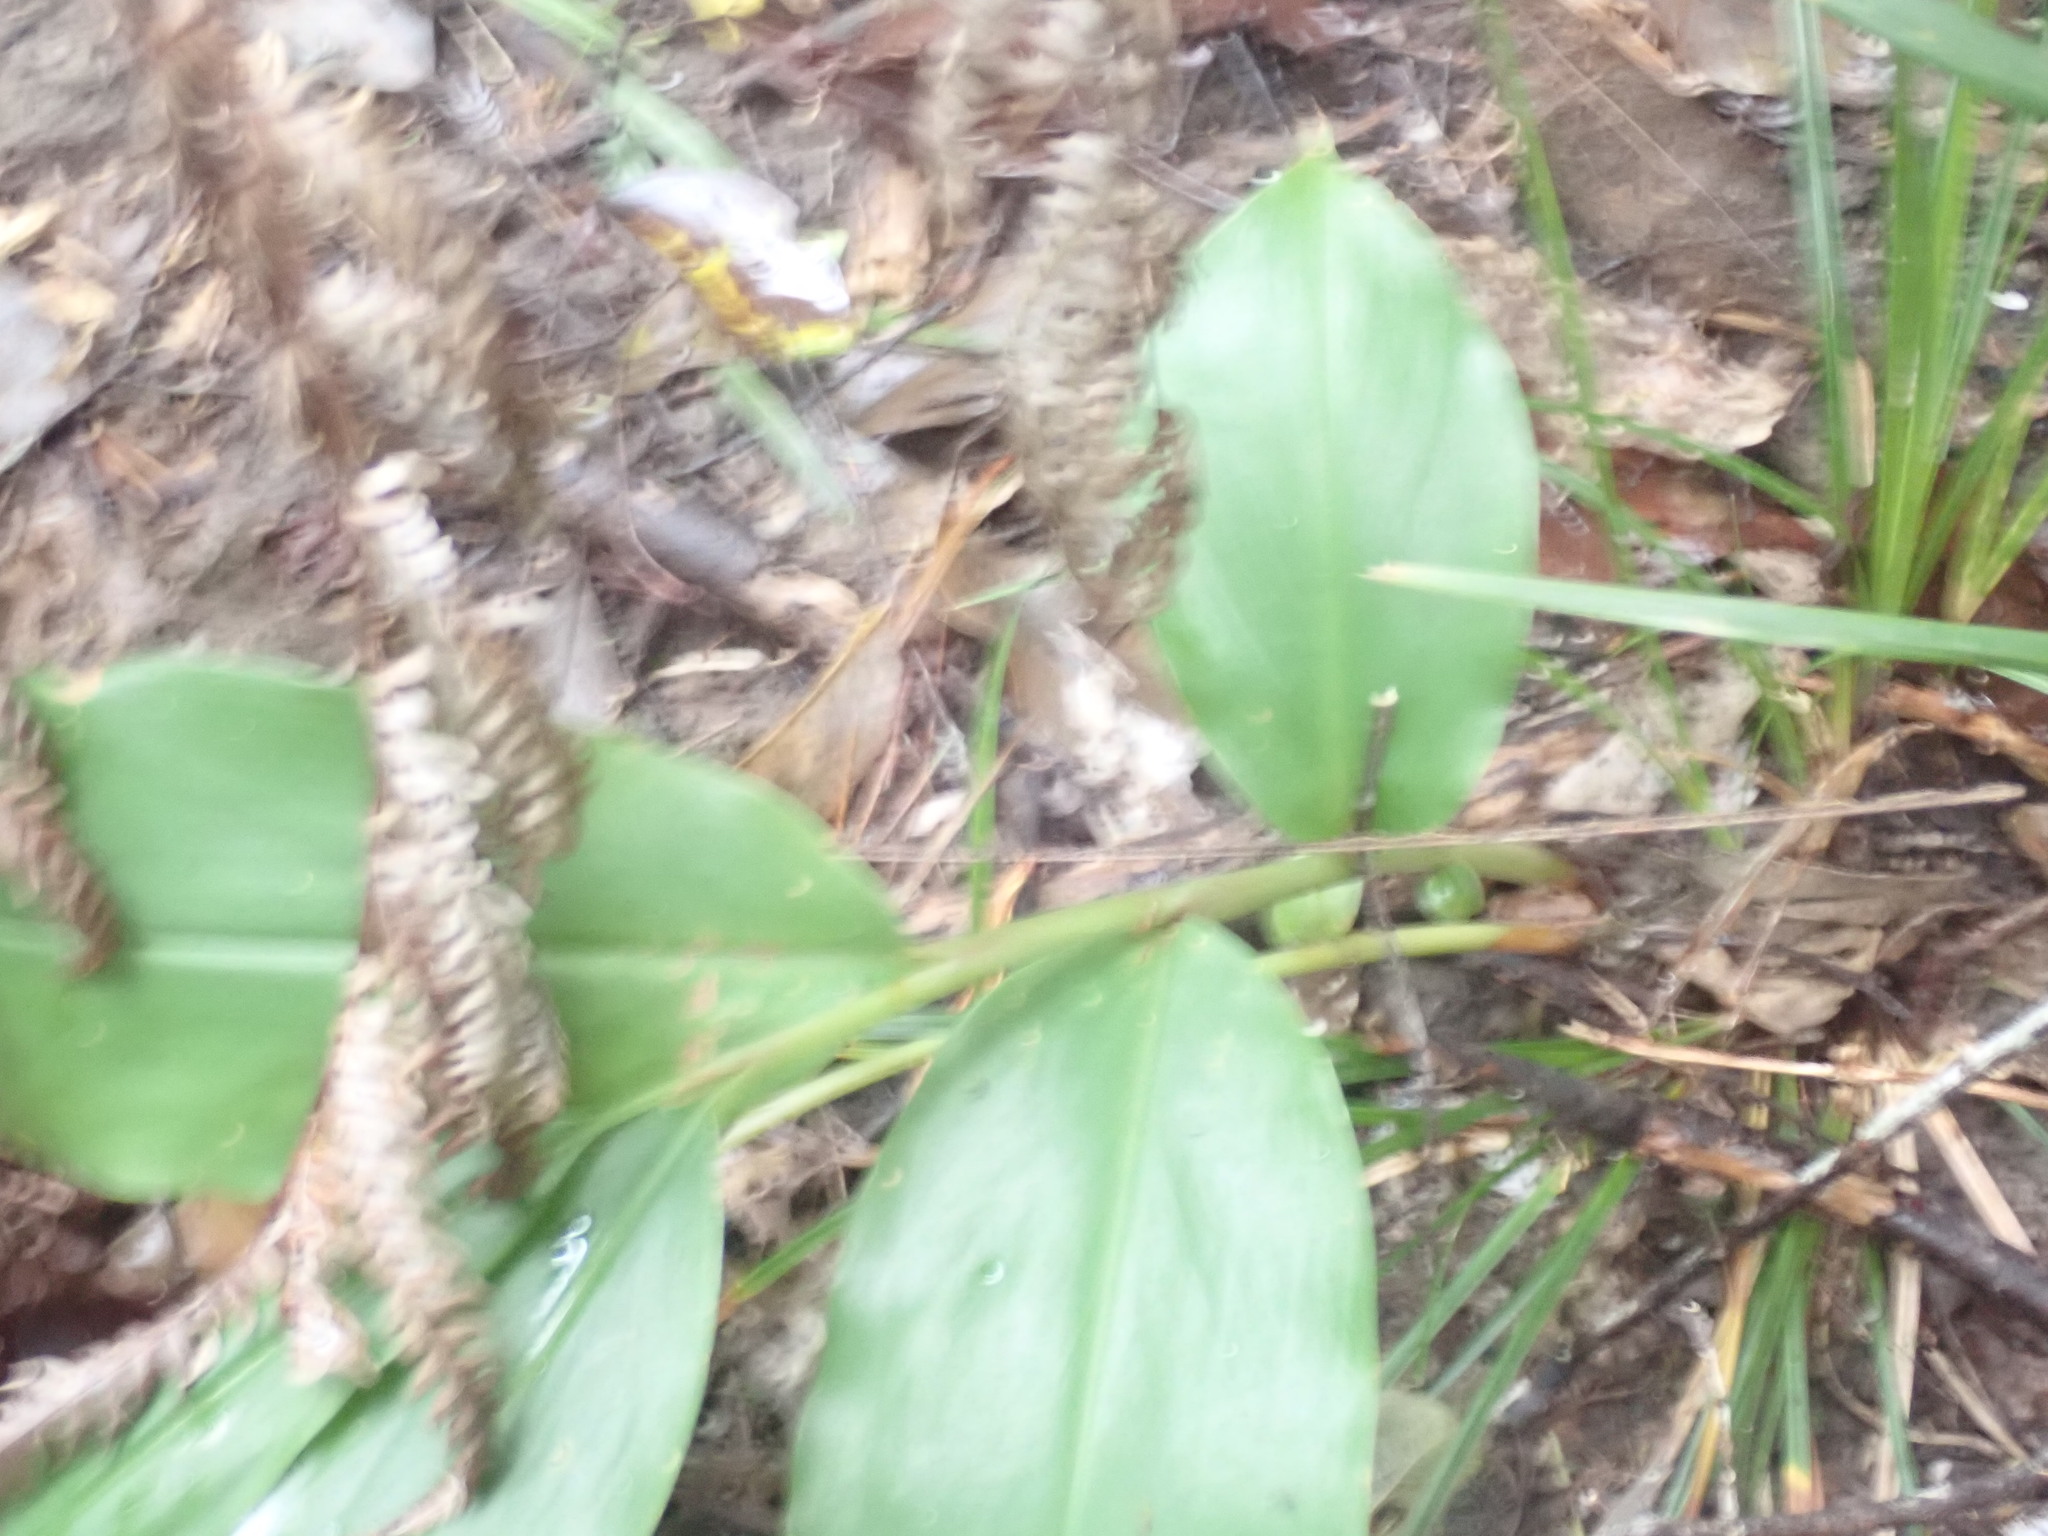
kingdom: Plantae
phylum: Tracheophyta
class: Liliopsida
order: Zingiberales
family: Zingiberaceae
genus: Hedychium
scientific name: Hedychium gardnerianum
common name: Himalayan ginger
